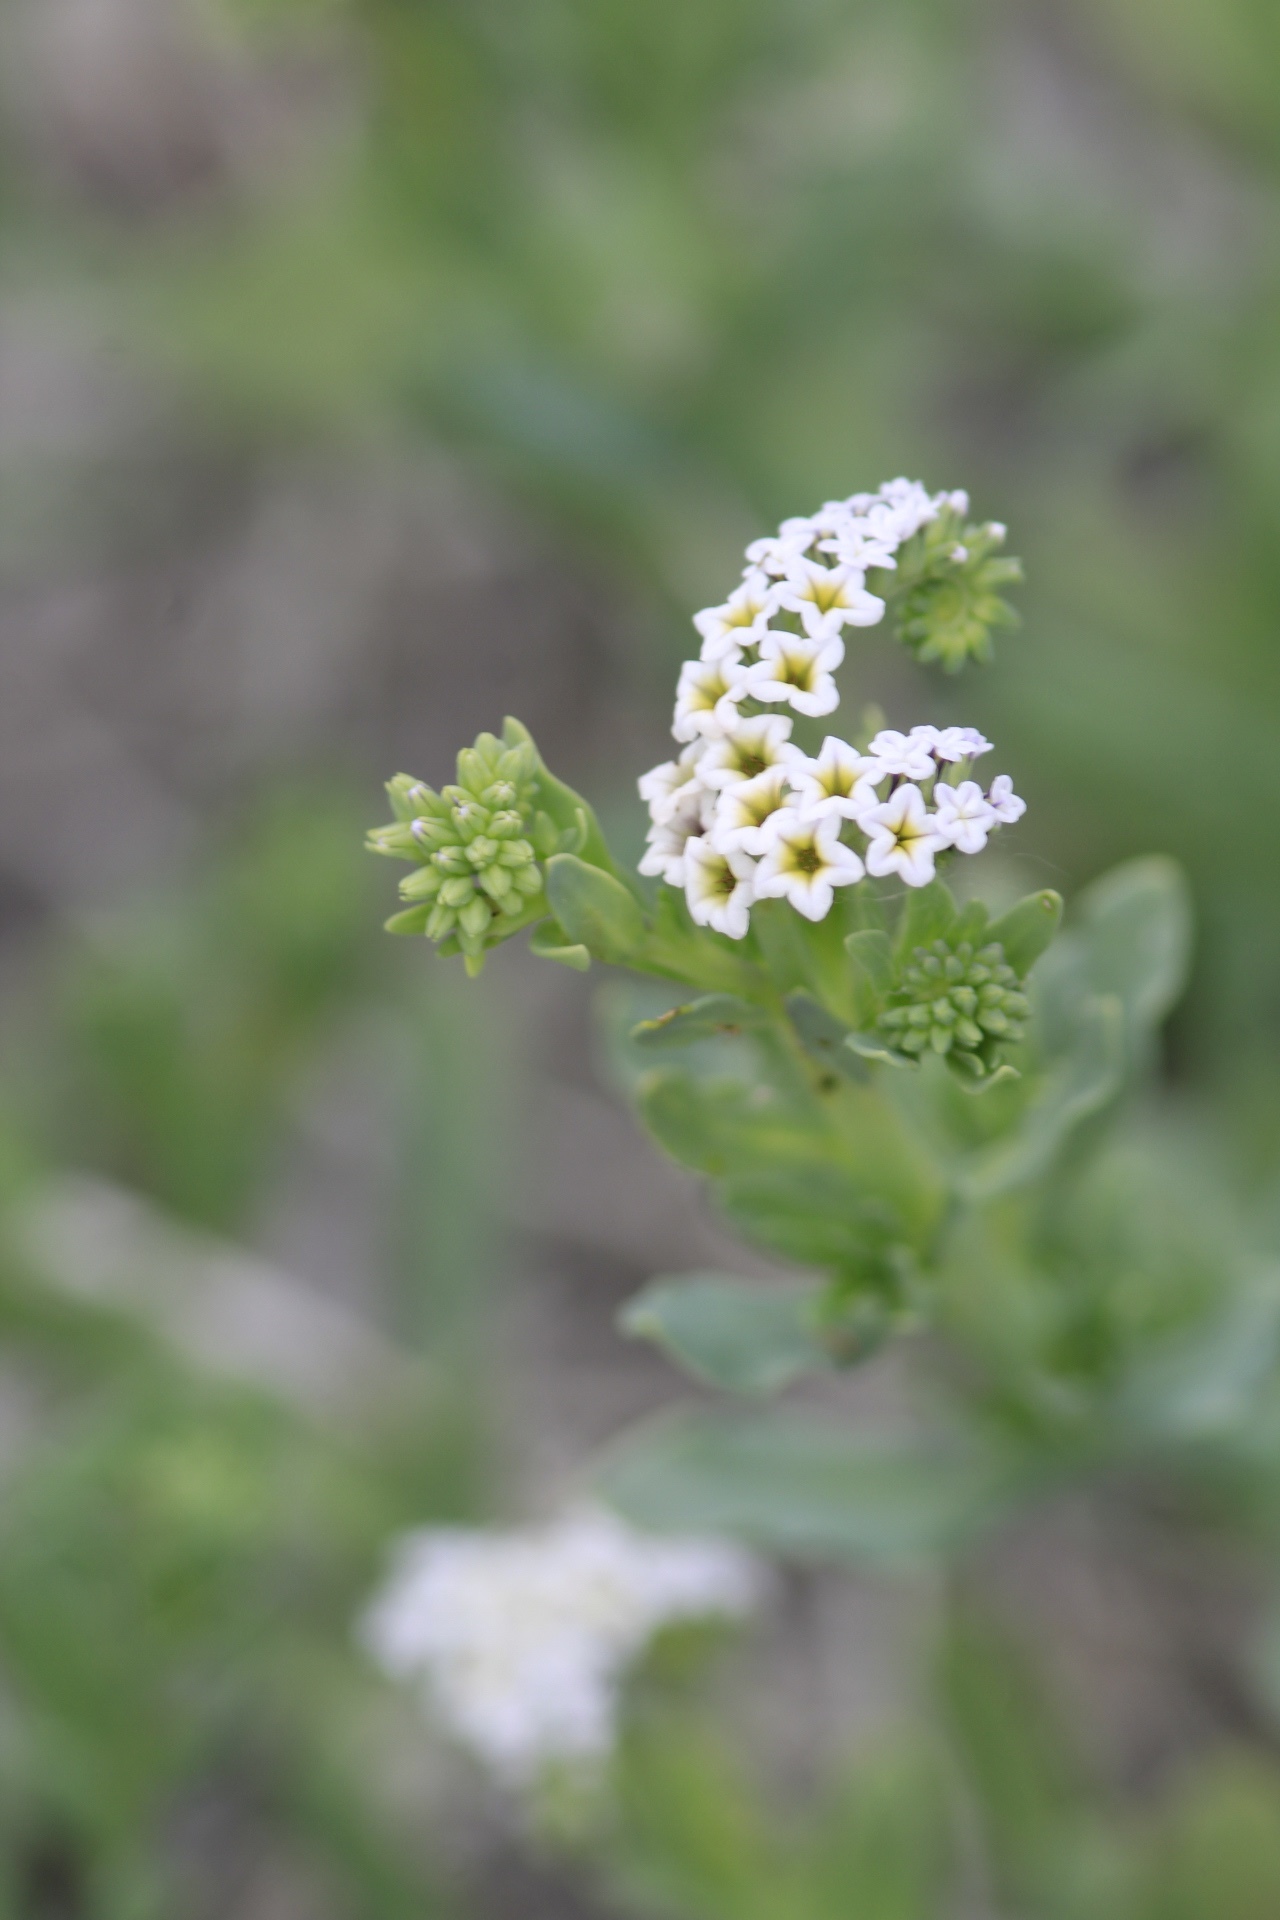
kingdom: Plantae
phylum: Tracheophyta
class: Magnoliopsida
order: Boraginales
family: Heliotropiaceae
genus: Heliotropium
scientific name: Heliotropium curassavicum
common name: Seaside heliotrope
